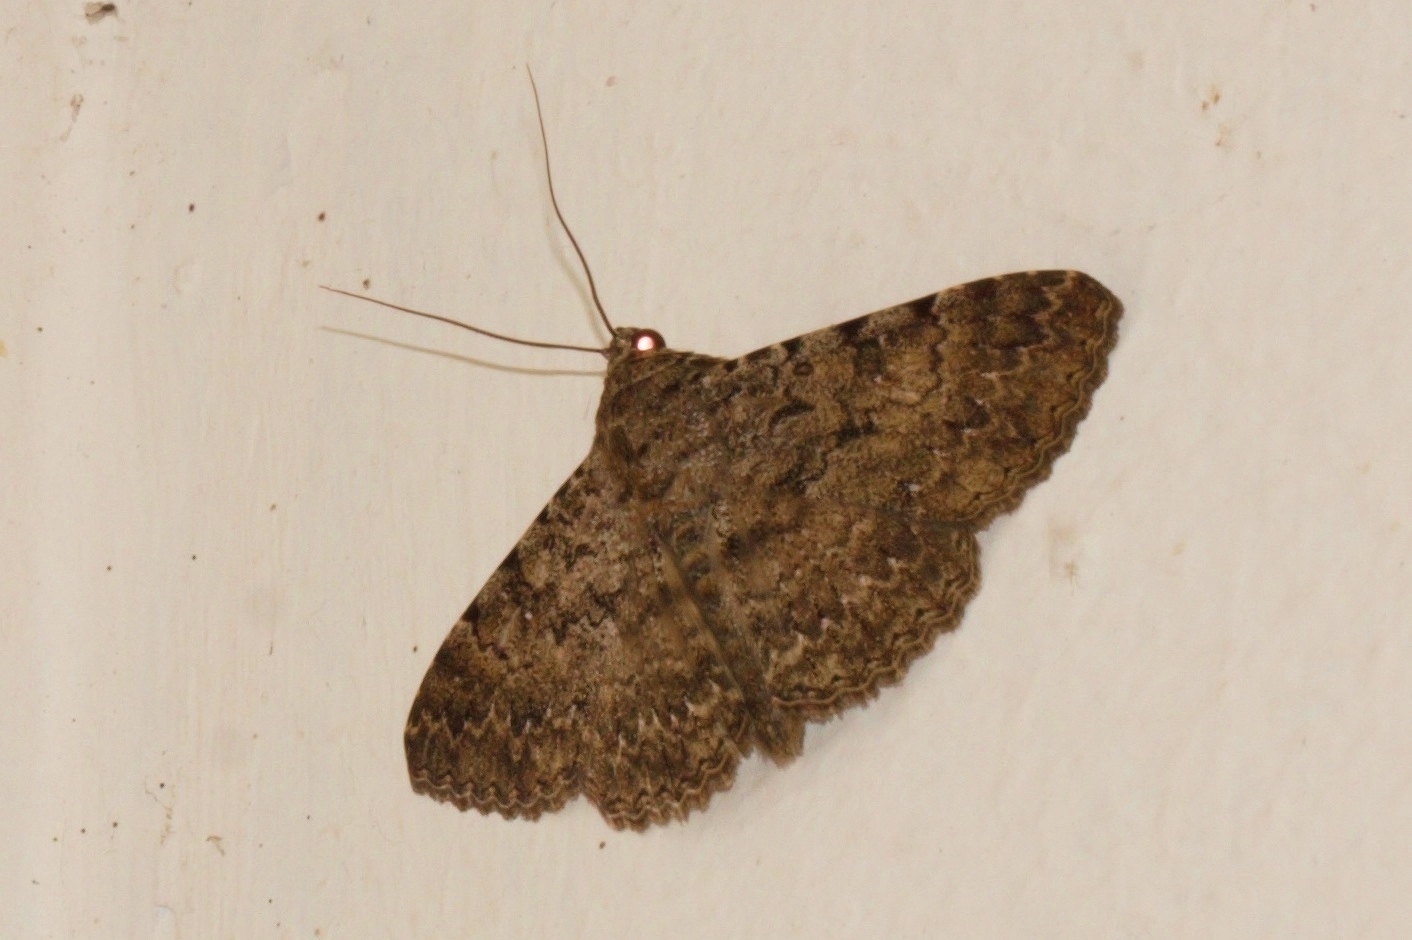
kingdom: Animalia
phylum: Arthropoda
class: Insecta
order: Lepidoptera
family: Erebidae
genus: Polydesma
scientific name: Polydesma umbricola
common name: Monkeypod moth
